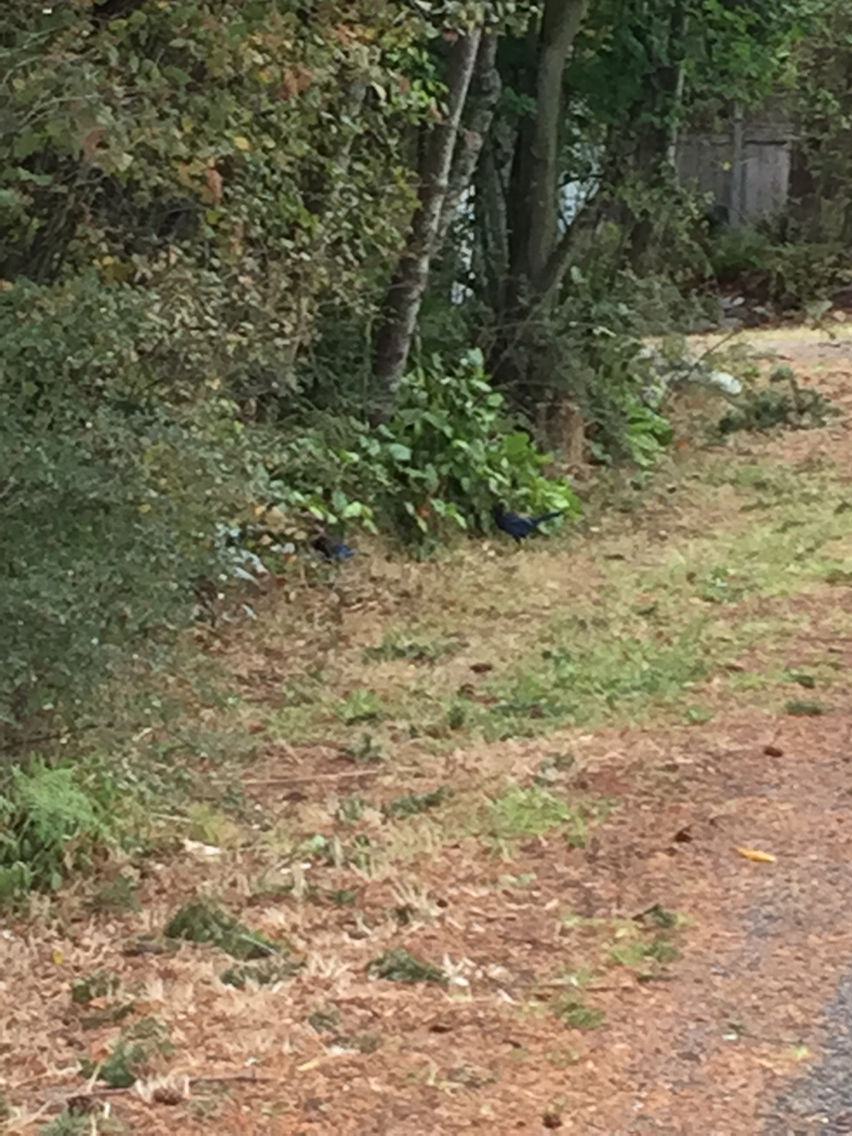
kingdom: Animalia
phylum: Chordata
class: Aves
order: Passeriformes
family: Corvidae
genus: Cyanocitta
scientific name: Cyanocitta stelleri
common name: Steller's jay
